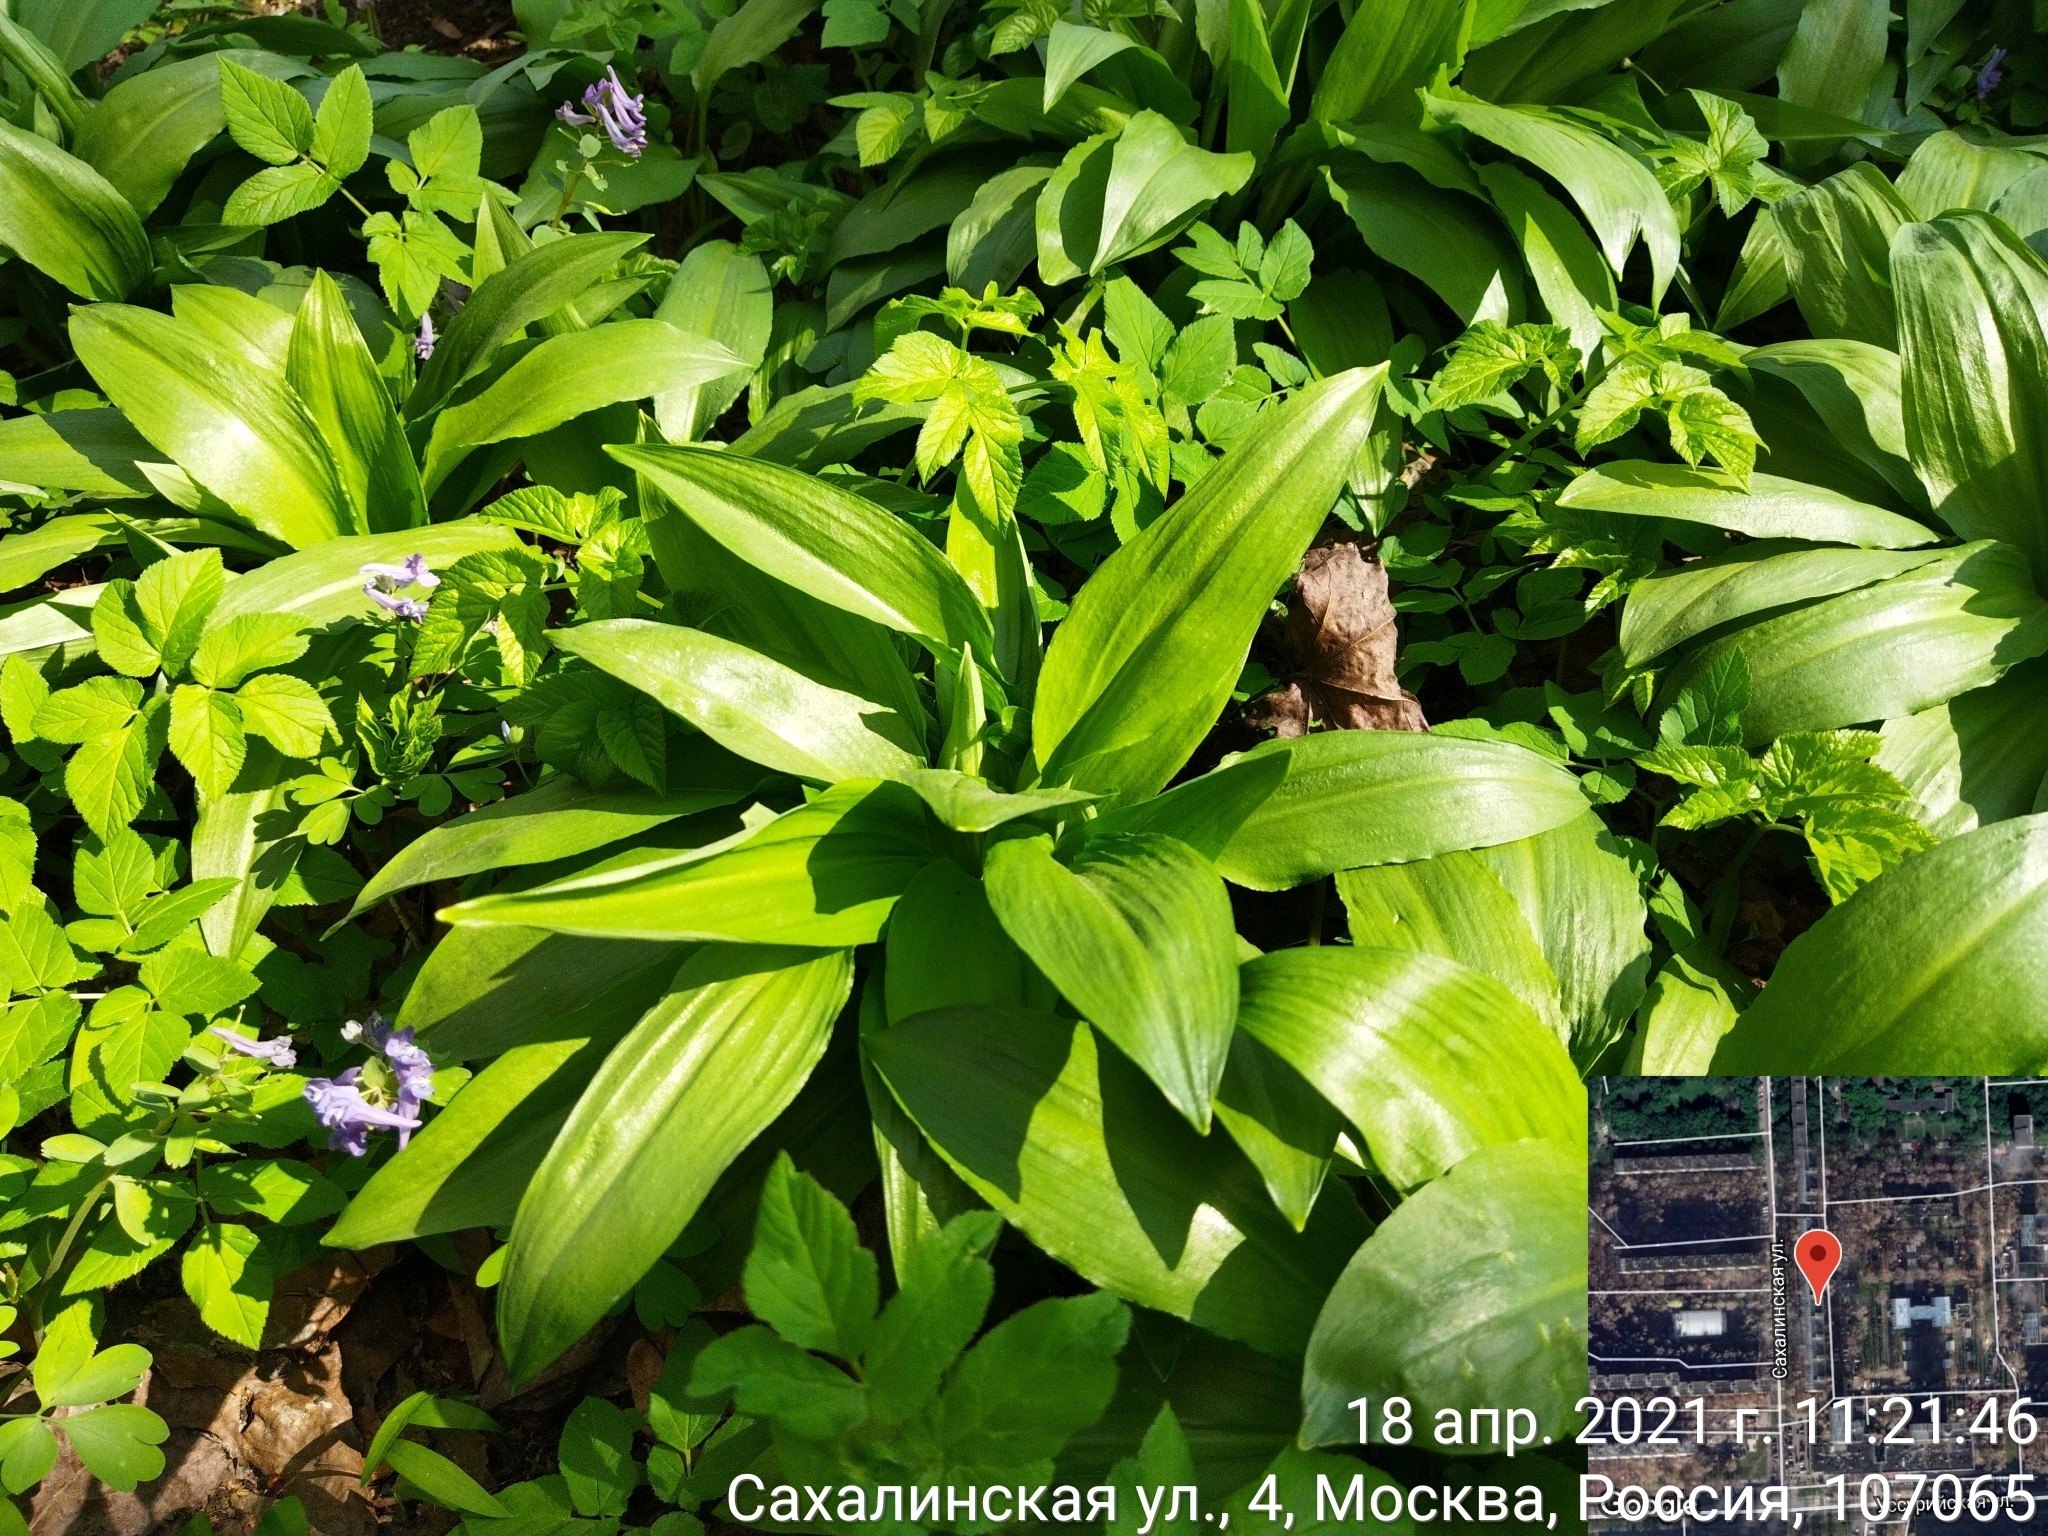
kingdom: Plantae
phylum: Tracheophyta
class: Liliopsida
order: Asparagales
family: Amaryllidaceae
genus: Allium
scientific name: Allium ursinum
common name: Ramsons
